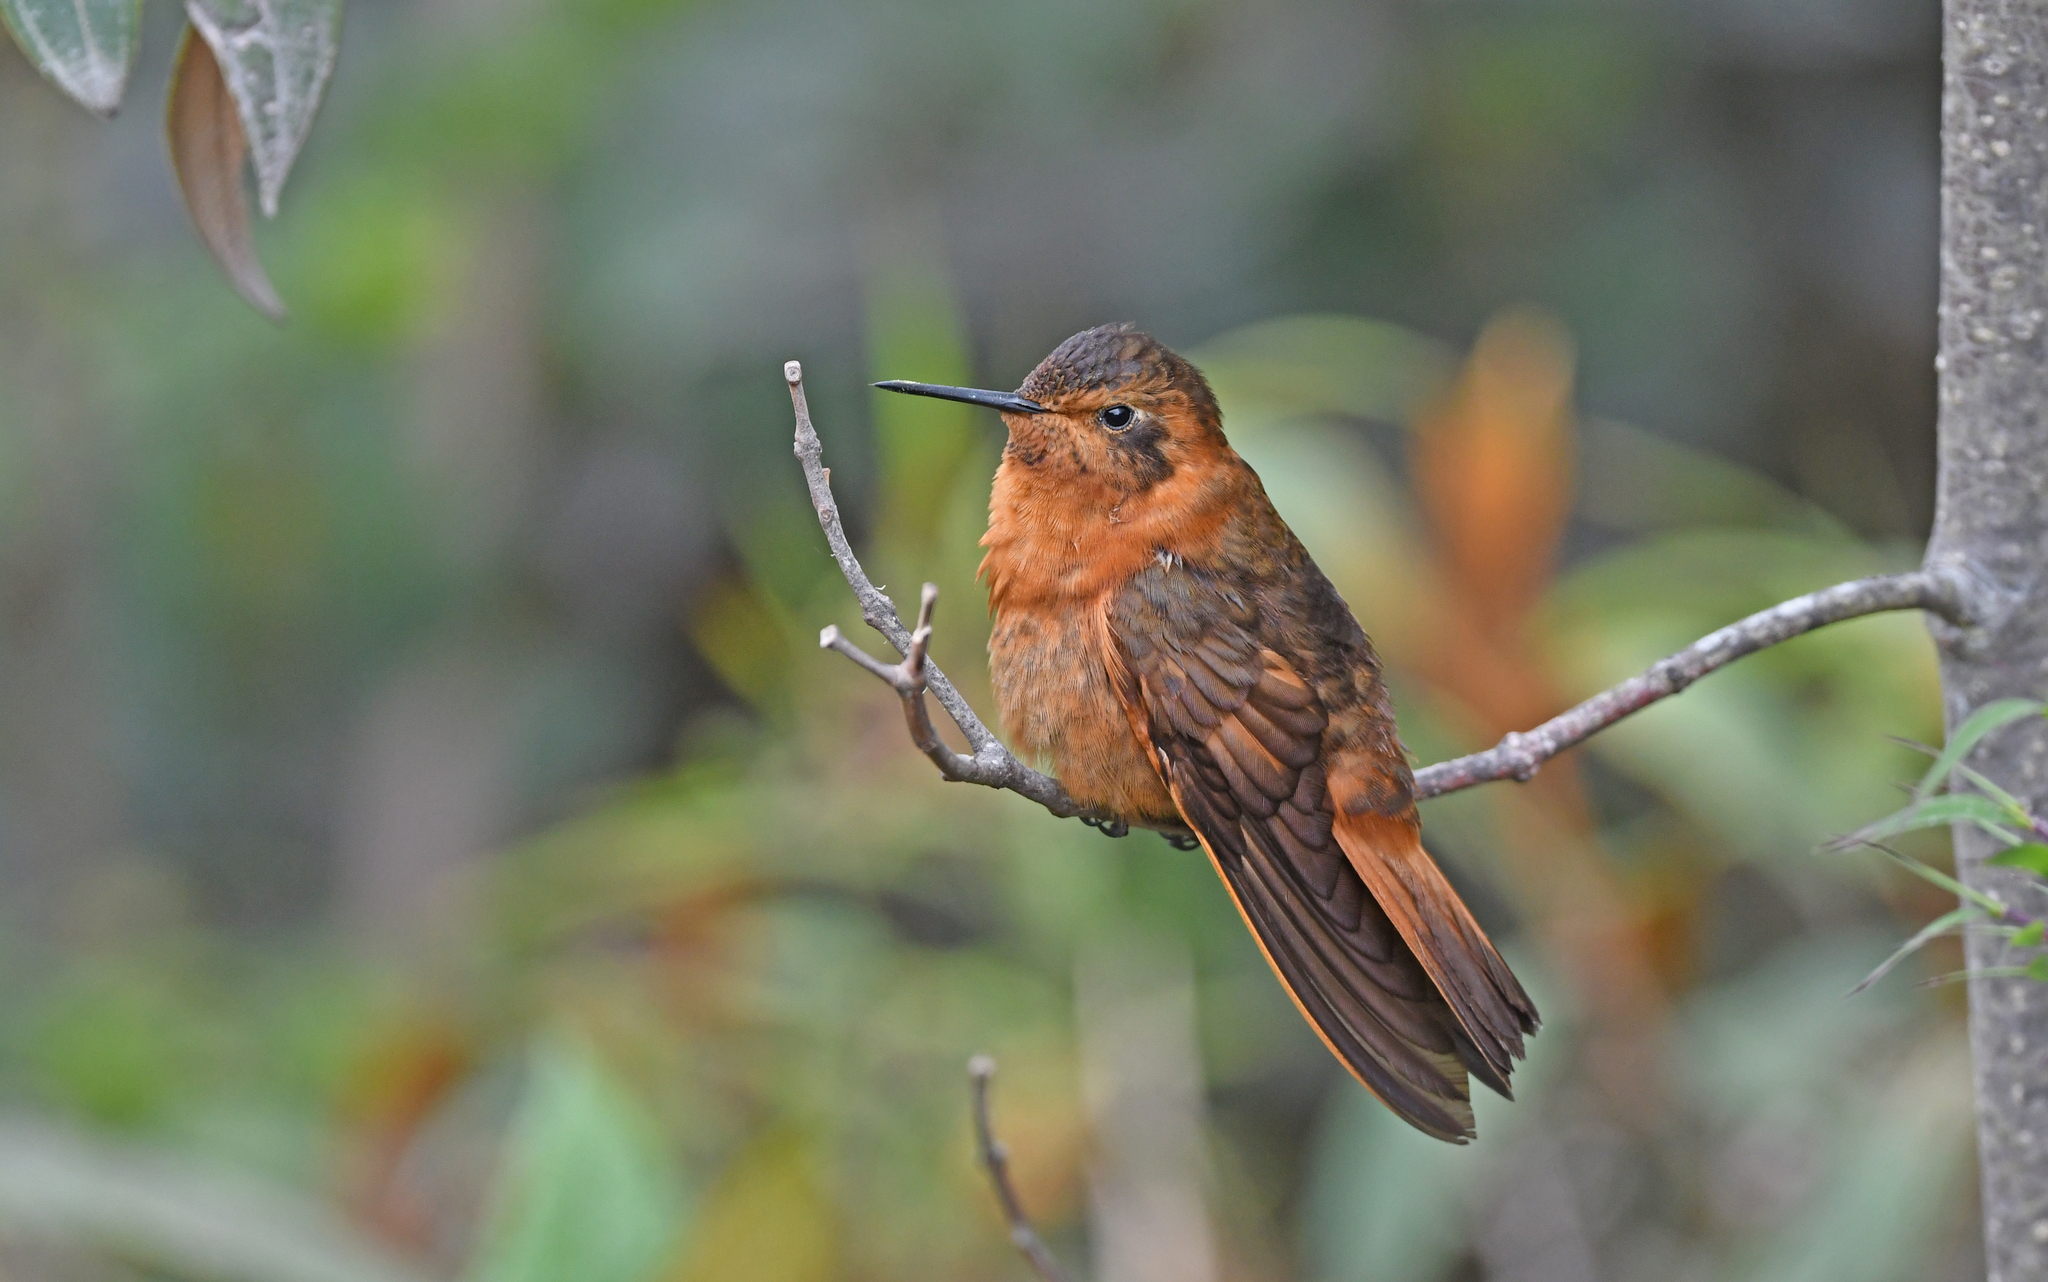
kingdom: Animalia
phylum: Chordata
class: Aves
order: Apodiformes
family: Trochilidae
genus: Aglaeactis
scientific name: Aglaeactis cupripennis
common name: Shining sunbeam
